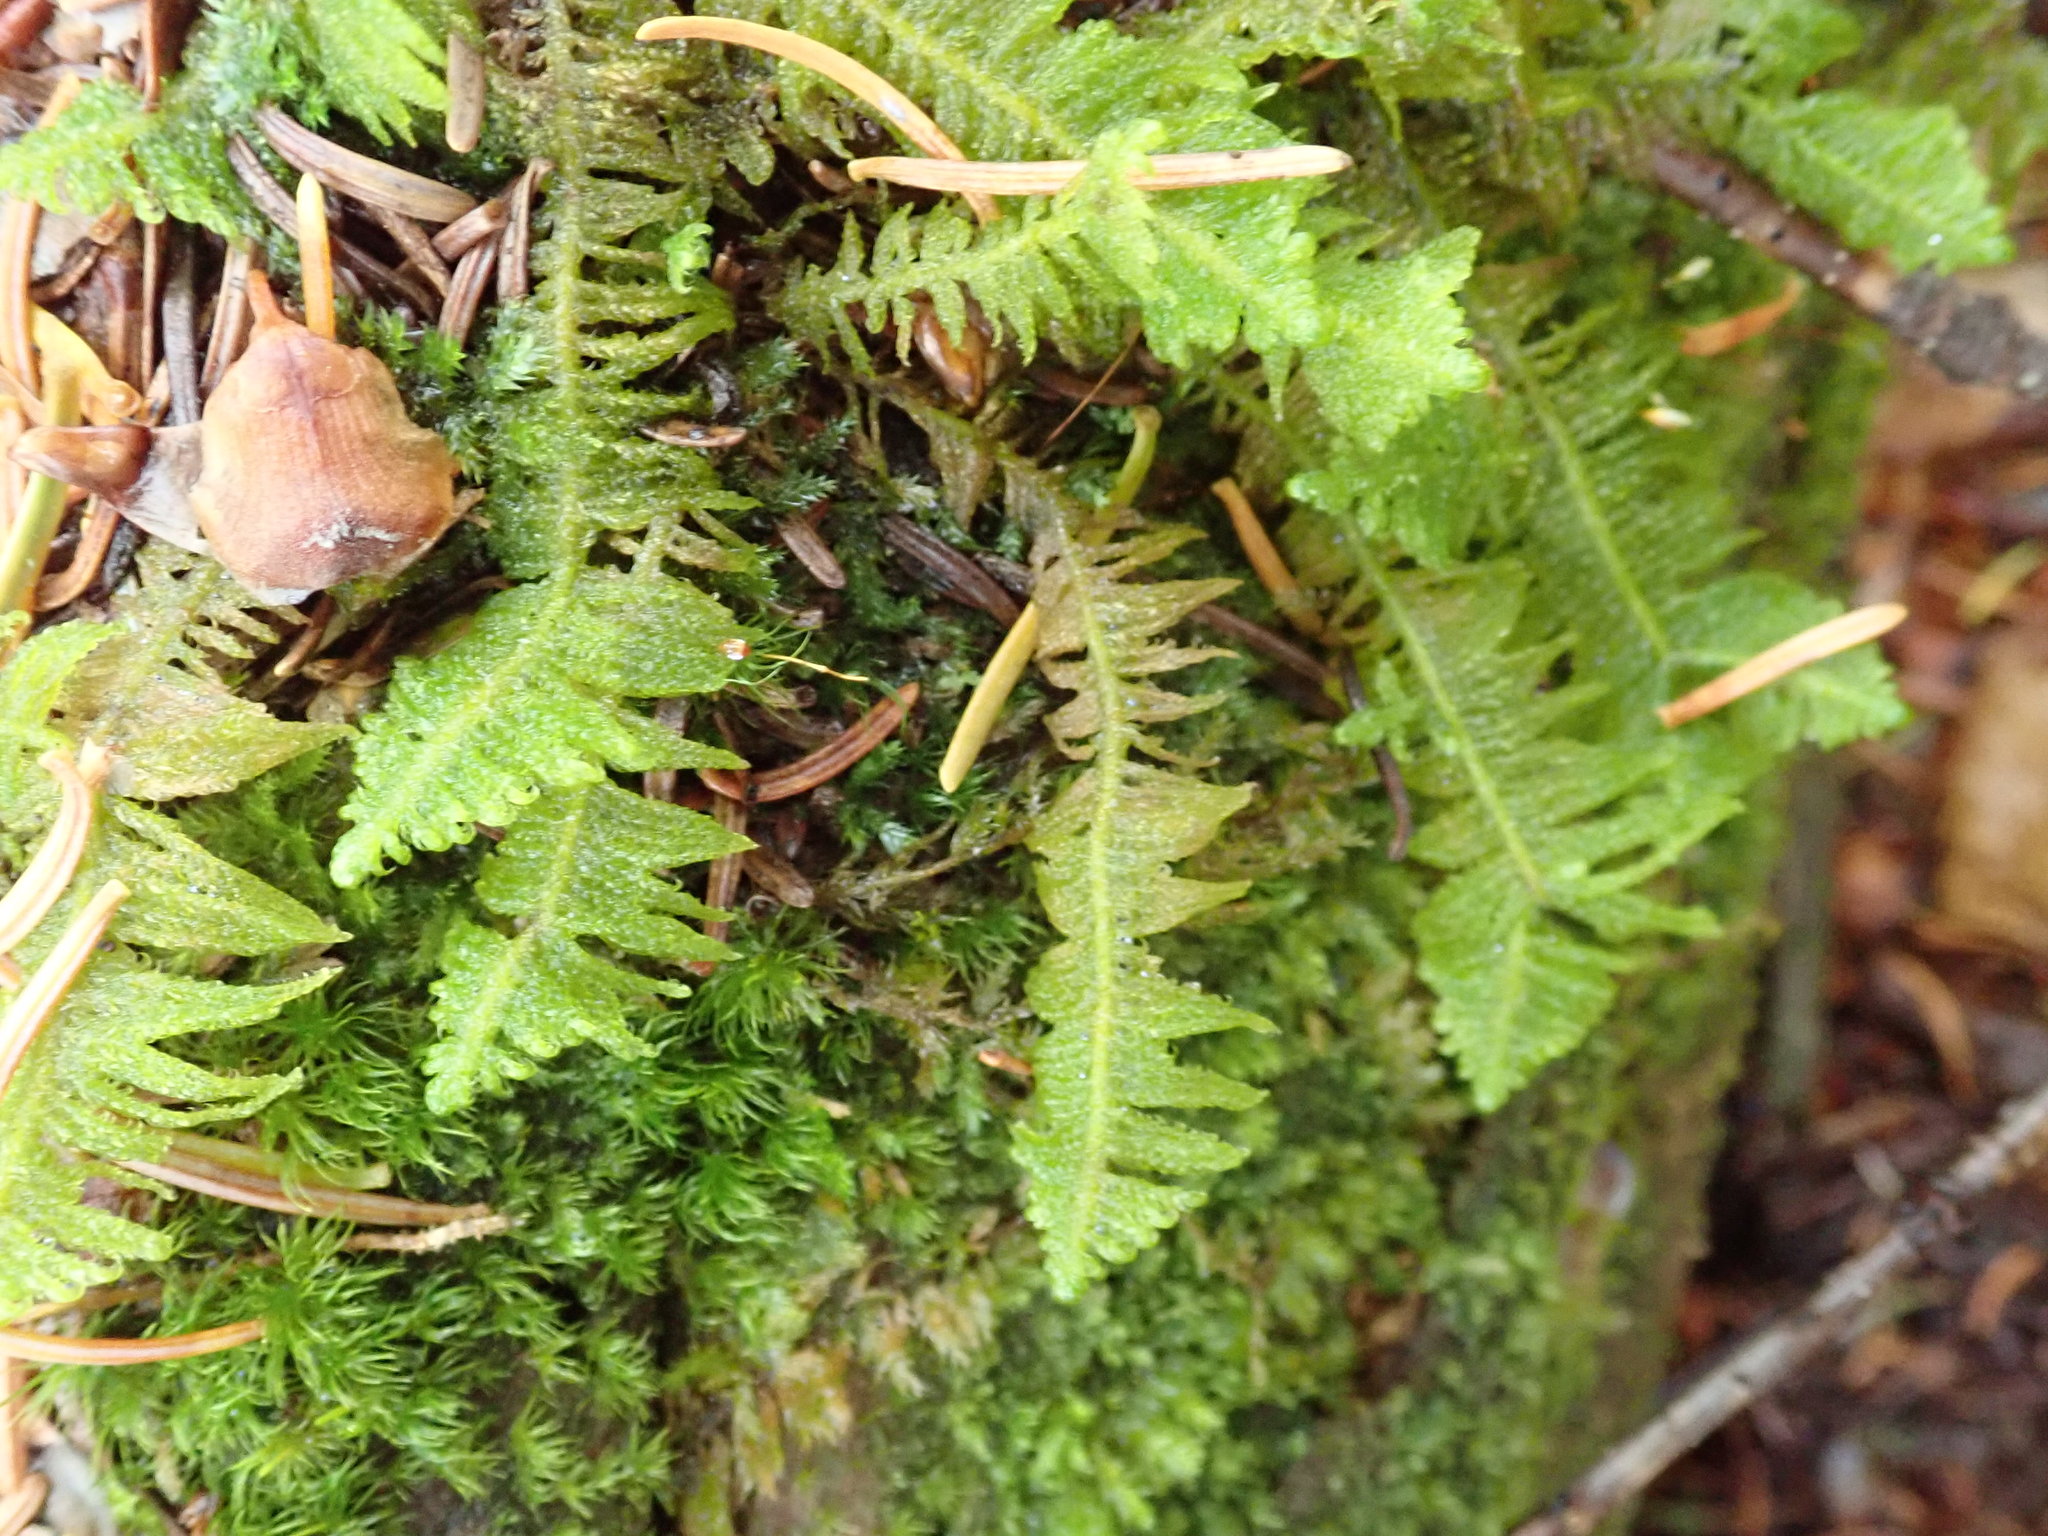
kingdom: Plantae
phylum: Bryophyta
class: Bryopsida
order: Hypnales
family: Pylaisiaceae
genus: Ptilium
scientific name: Ptilium crista-castrensis
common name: Knight's plume moss
